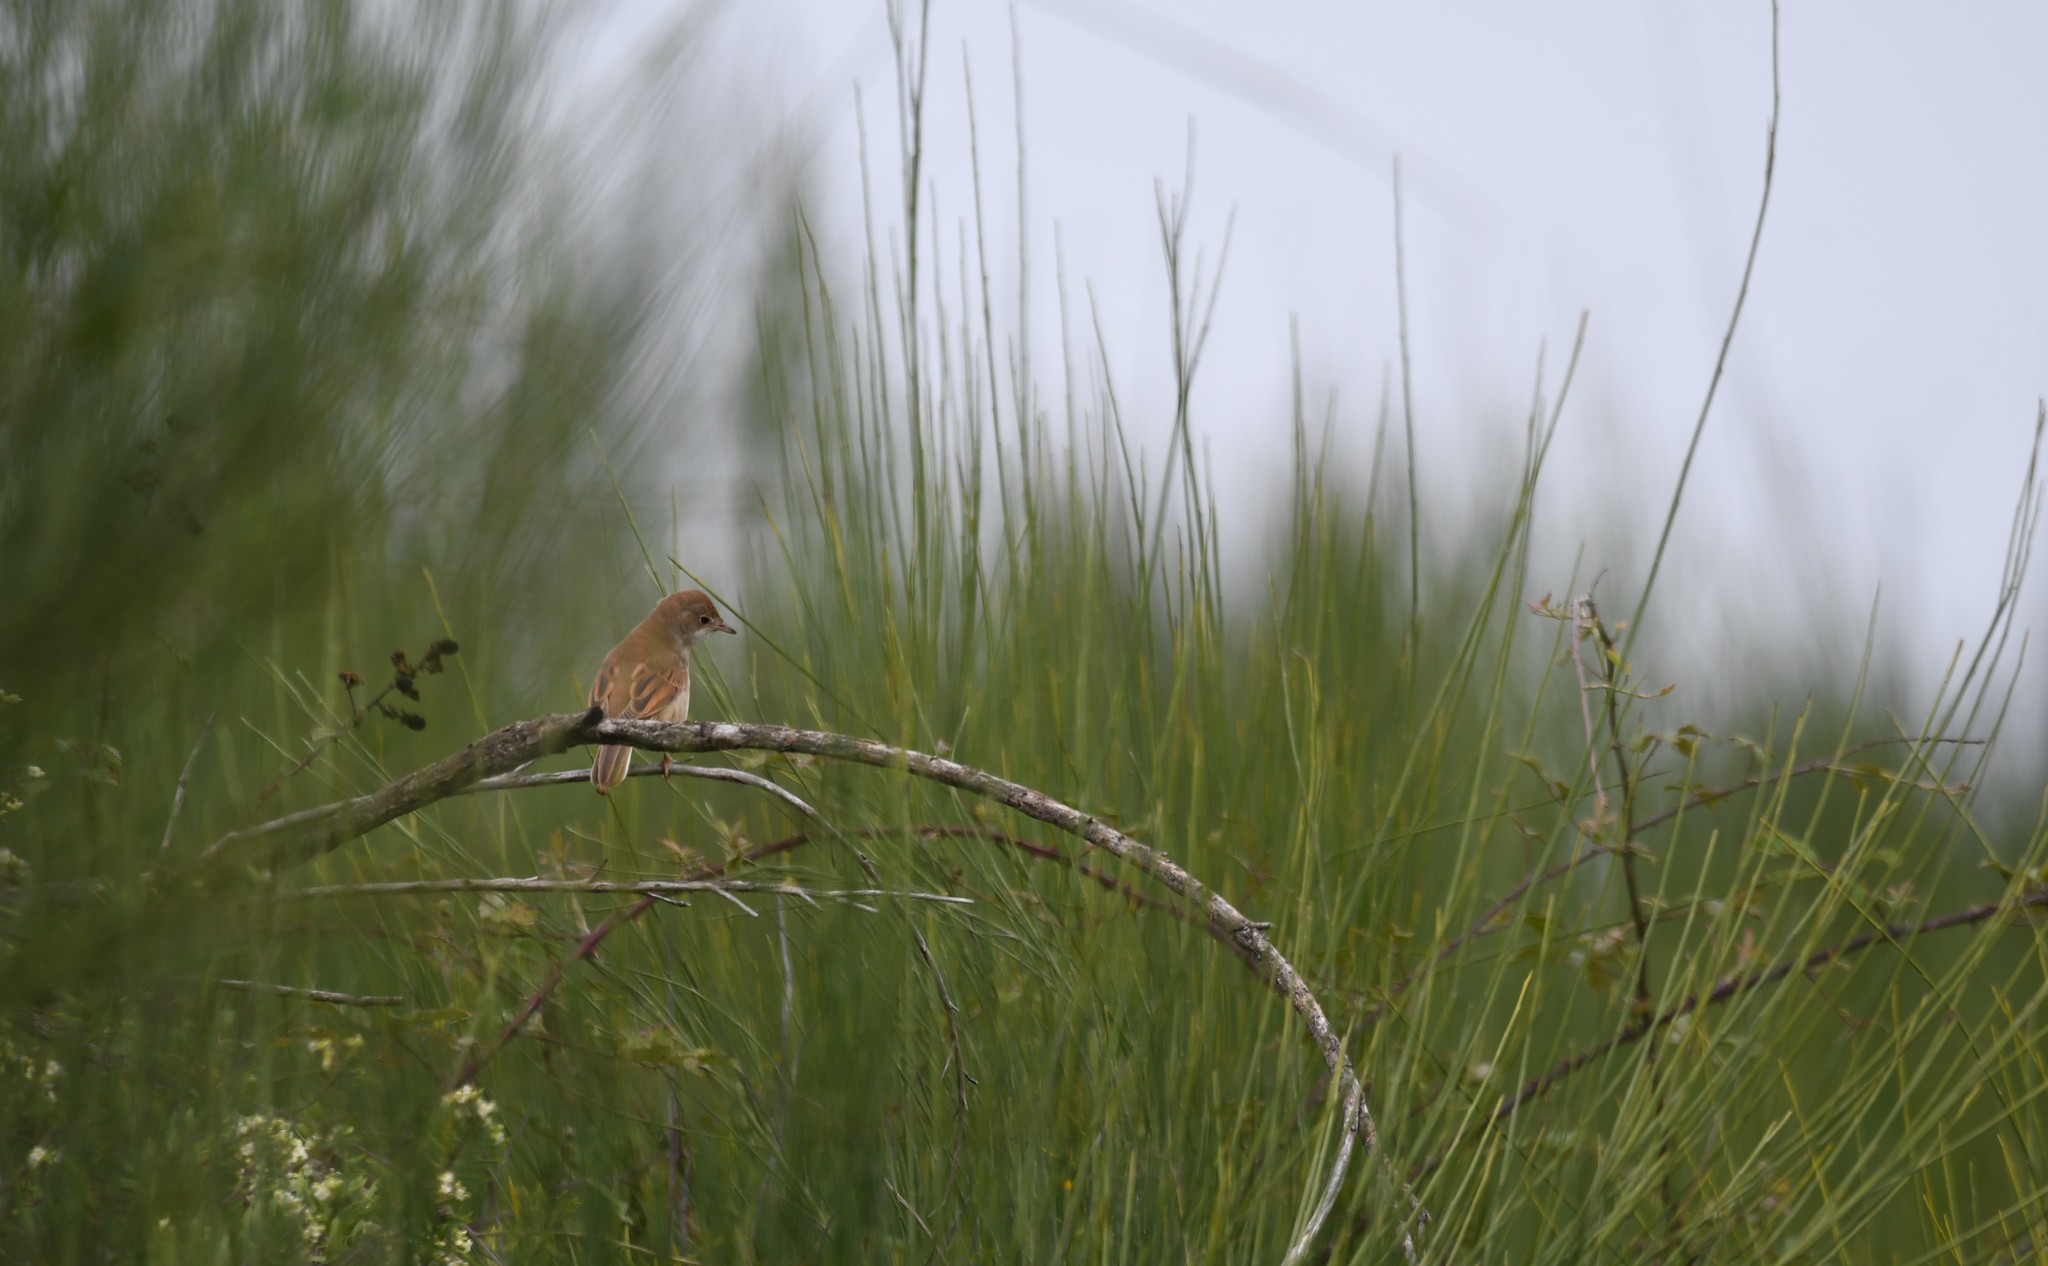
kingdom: Animalia
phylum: Chordata
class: Aves
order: Passeriformes
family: Sylviidae
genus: Sylvia
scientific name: Sylvia communis
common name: Common whitethroat
